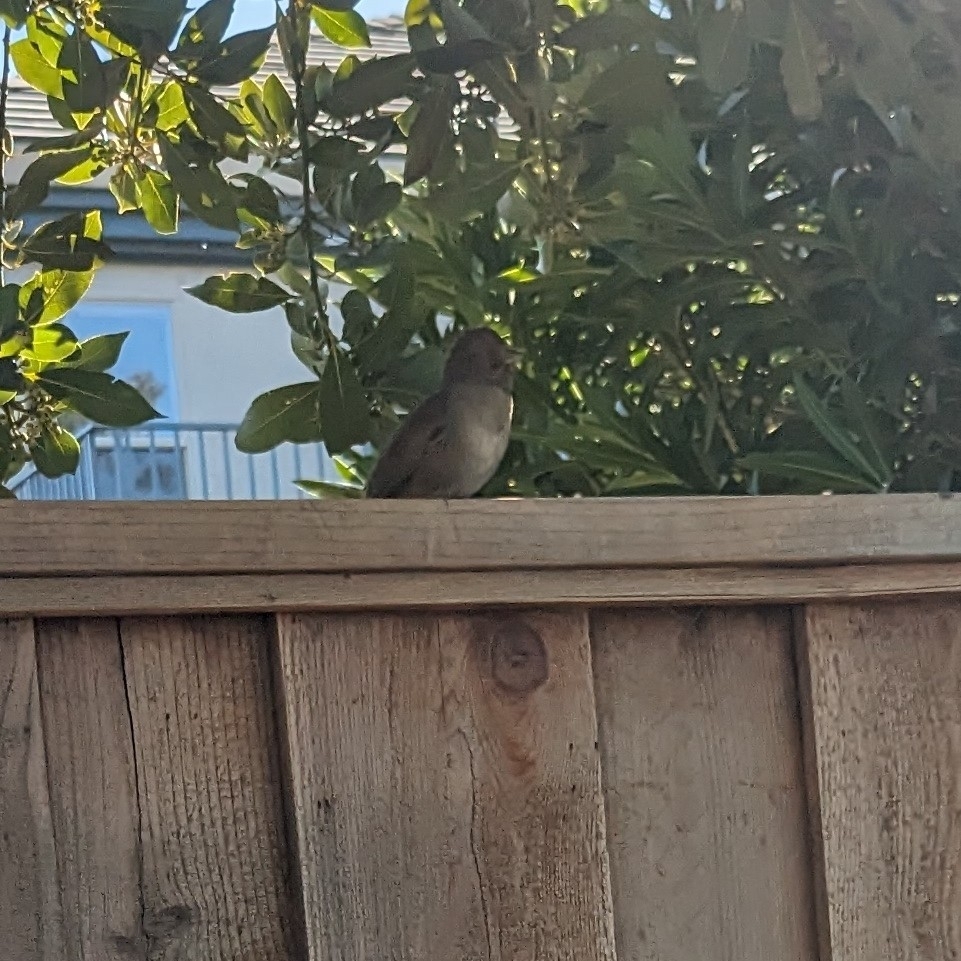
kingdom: Animalia
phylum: Chordata
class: Aves
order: Passeriformes
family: Passerellidae
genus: Melozone
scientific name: Melozone crissalis
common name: California towhee
